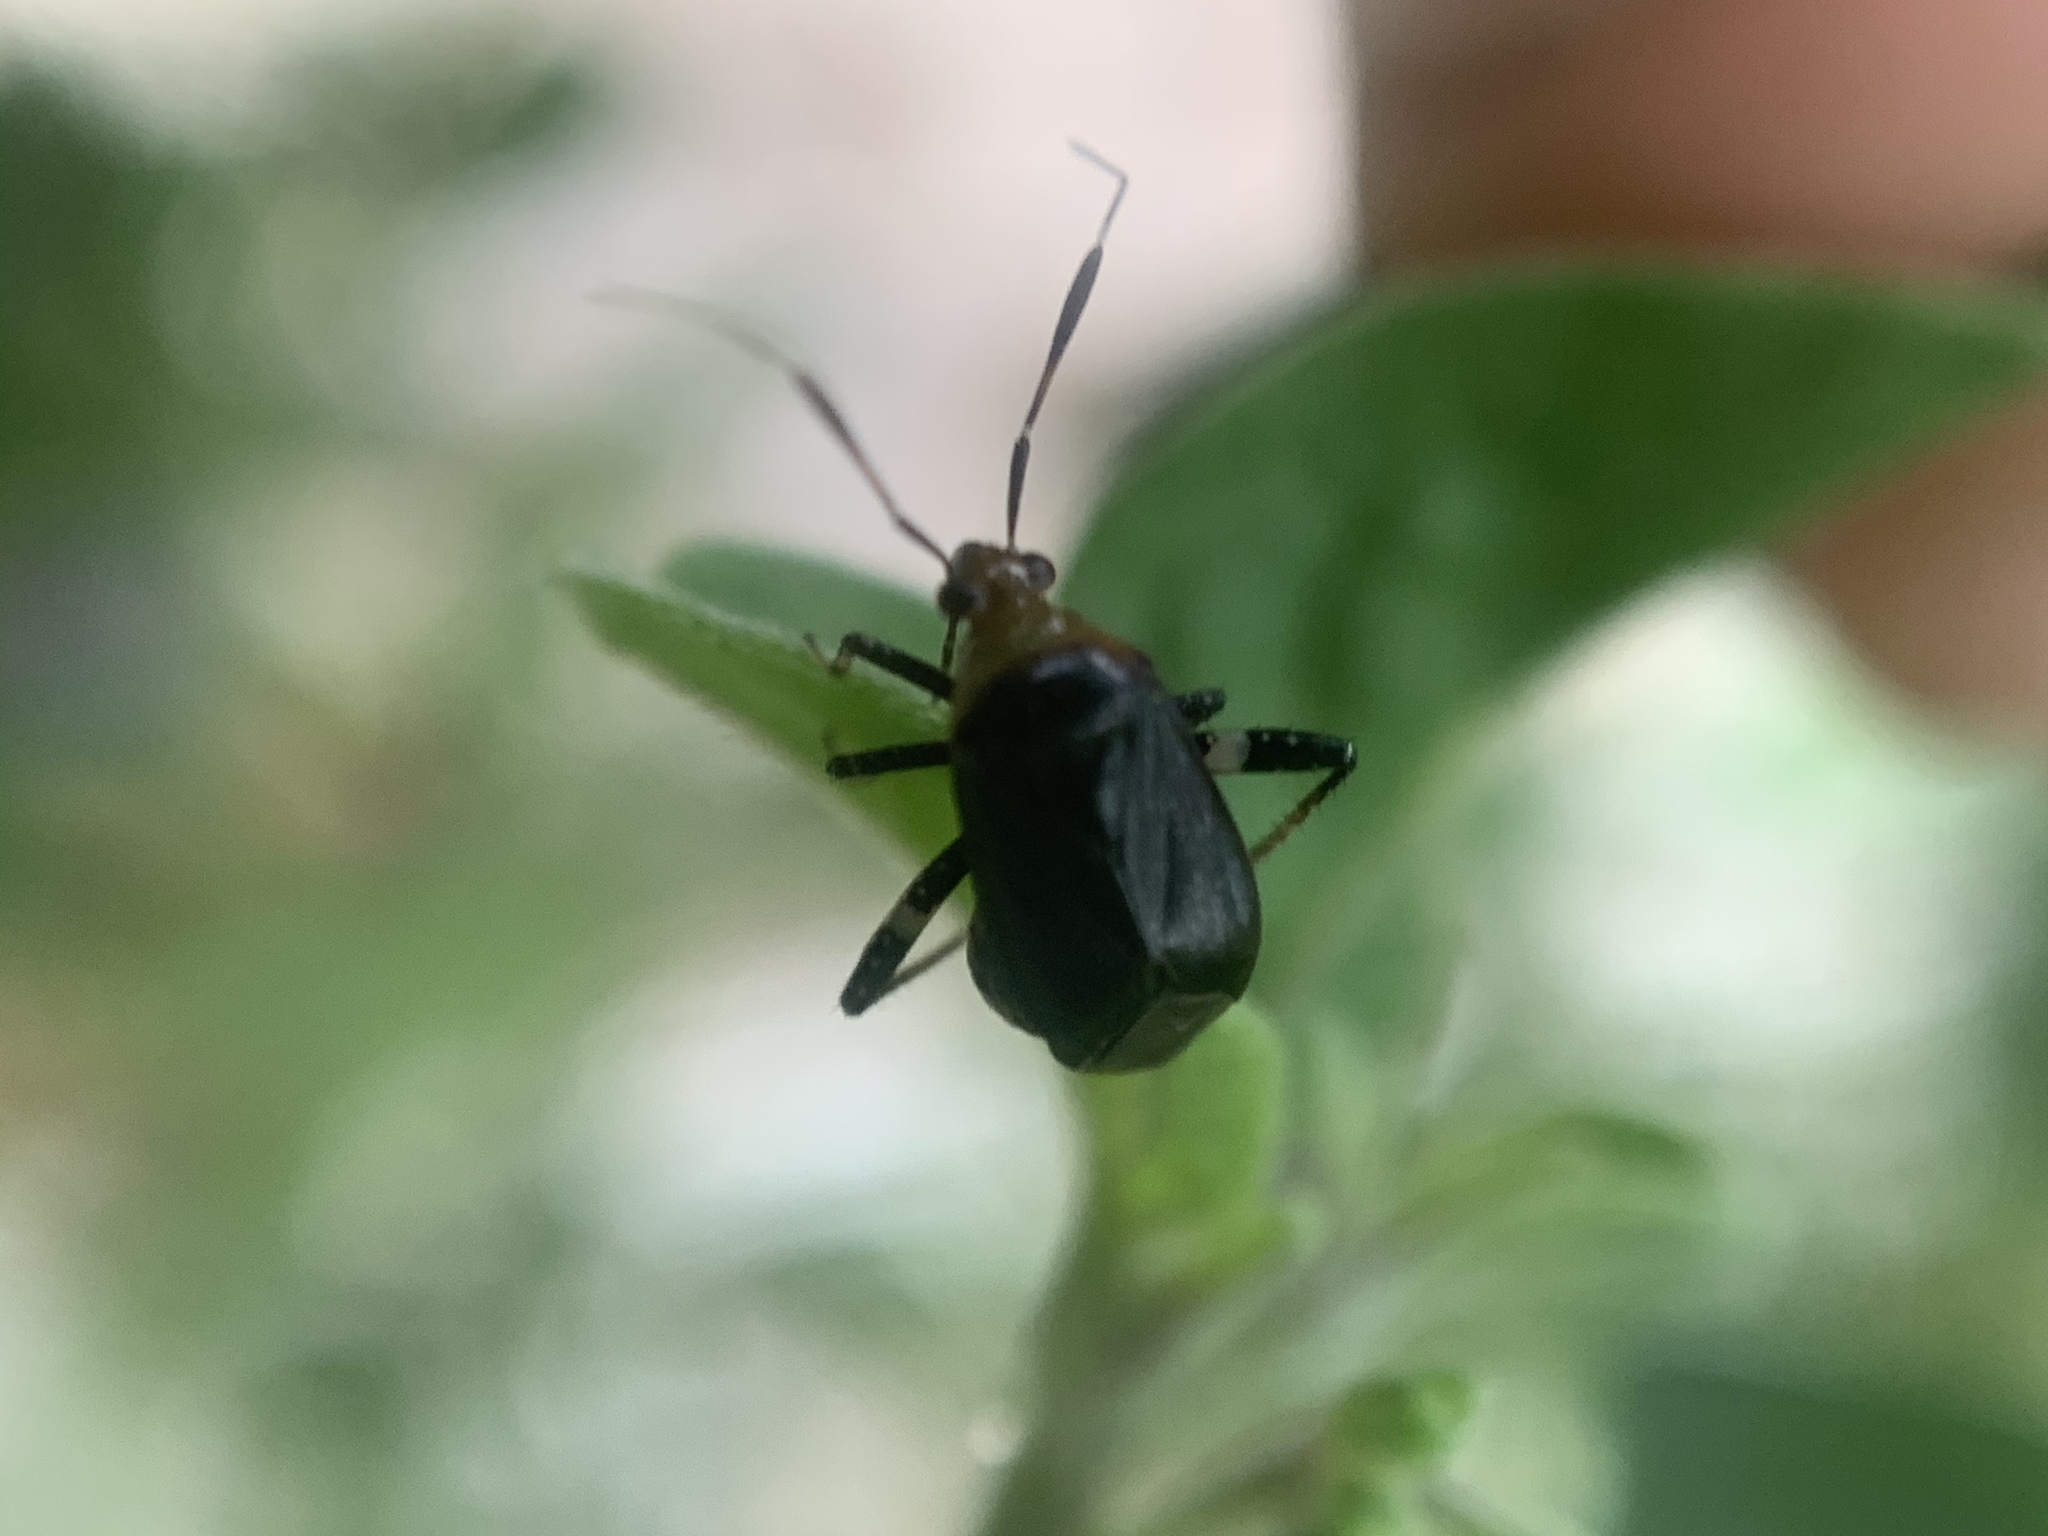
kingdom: Animalia
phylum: Arthropoda
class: Insecta
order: Hemiptera
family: Miridae
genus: Horciasinus
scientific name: Horciasinus argentinus
